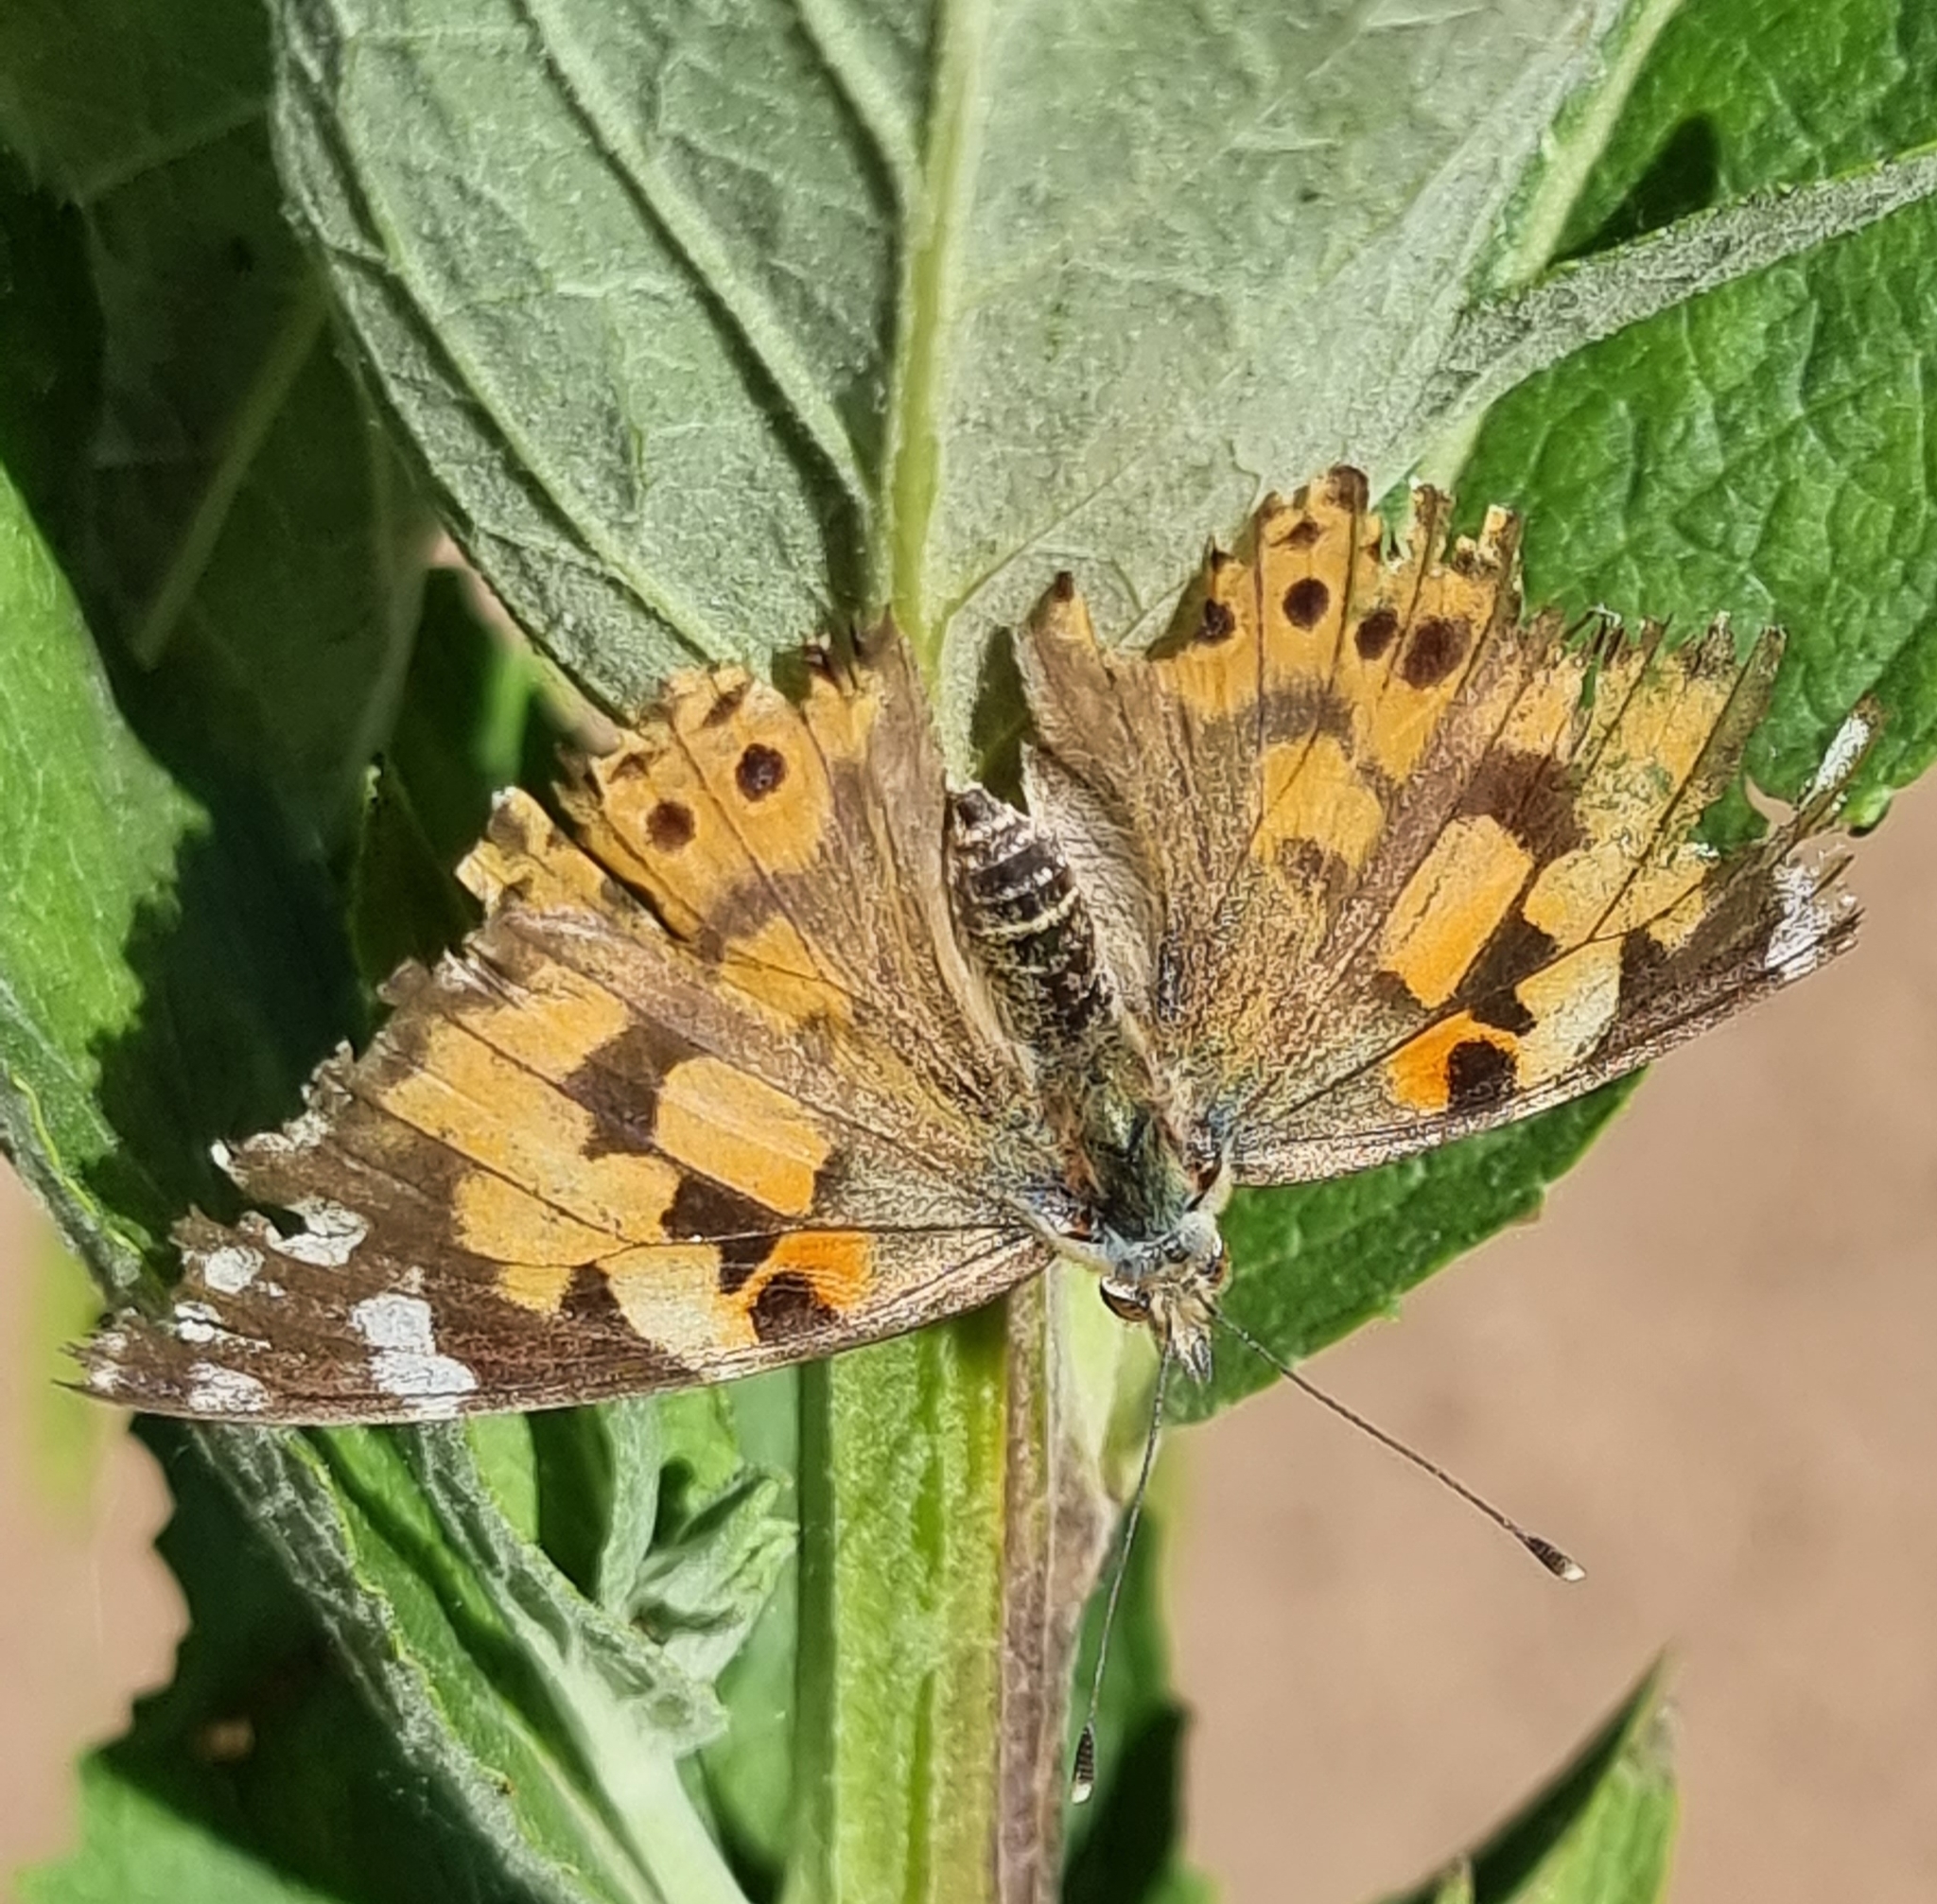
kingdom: Animalia
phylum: Arthropoda
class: Insecta
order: Lepidoptera
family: Nymphalidae
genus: Vanessa
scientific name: Vanessa cardui
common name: Painted lady
